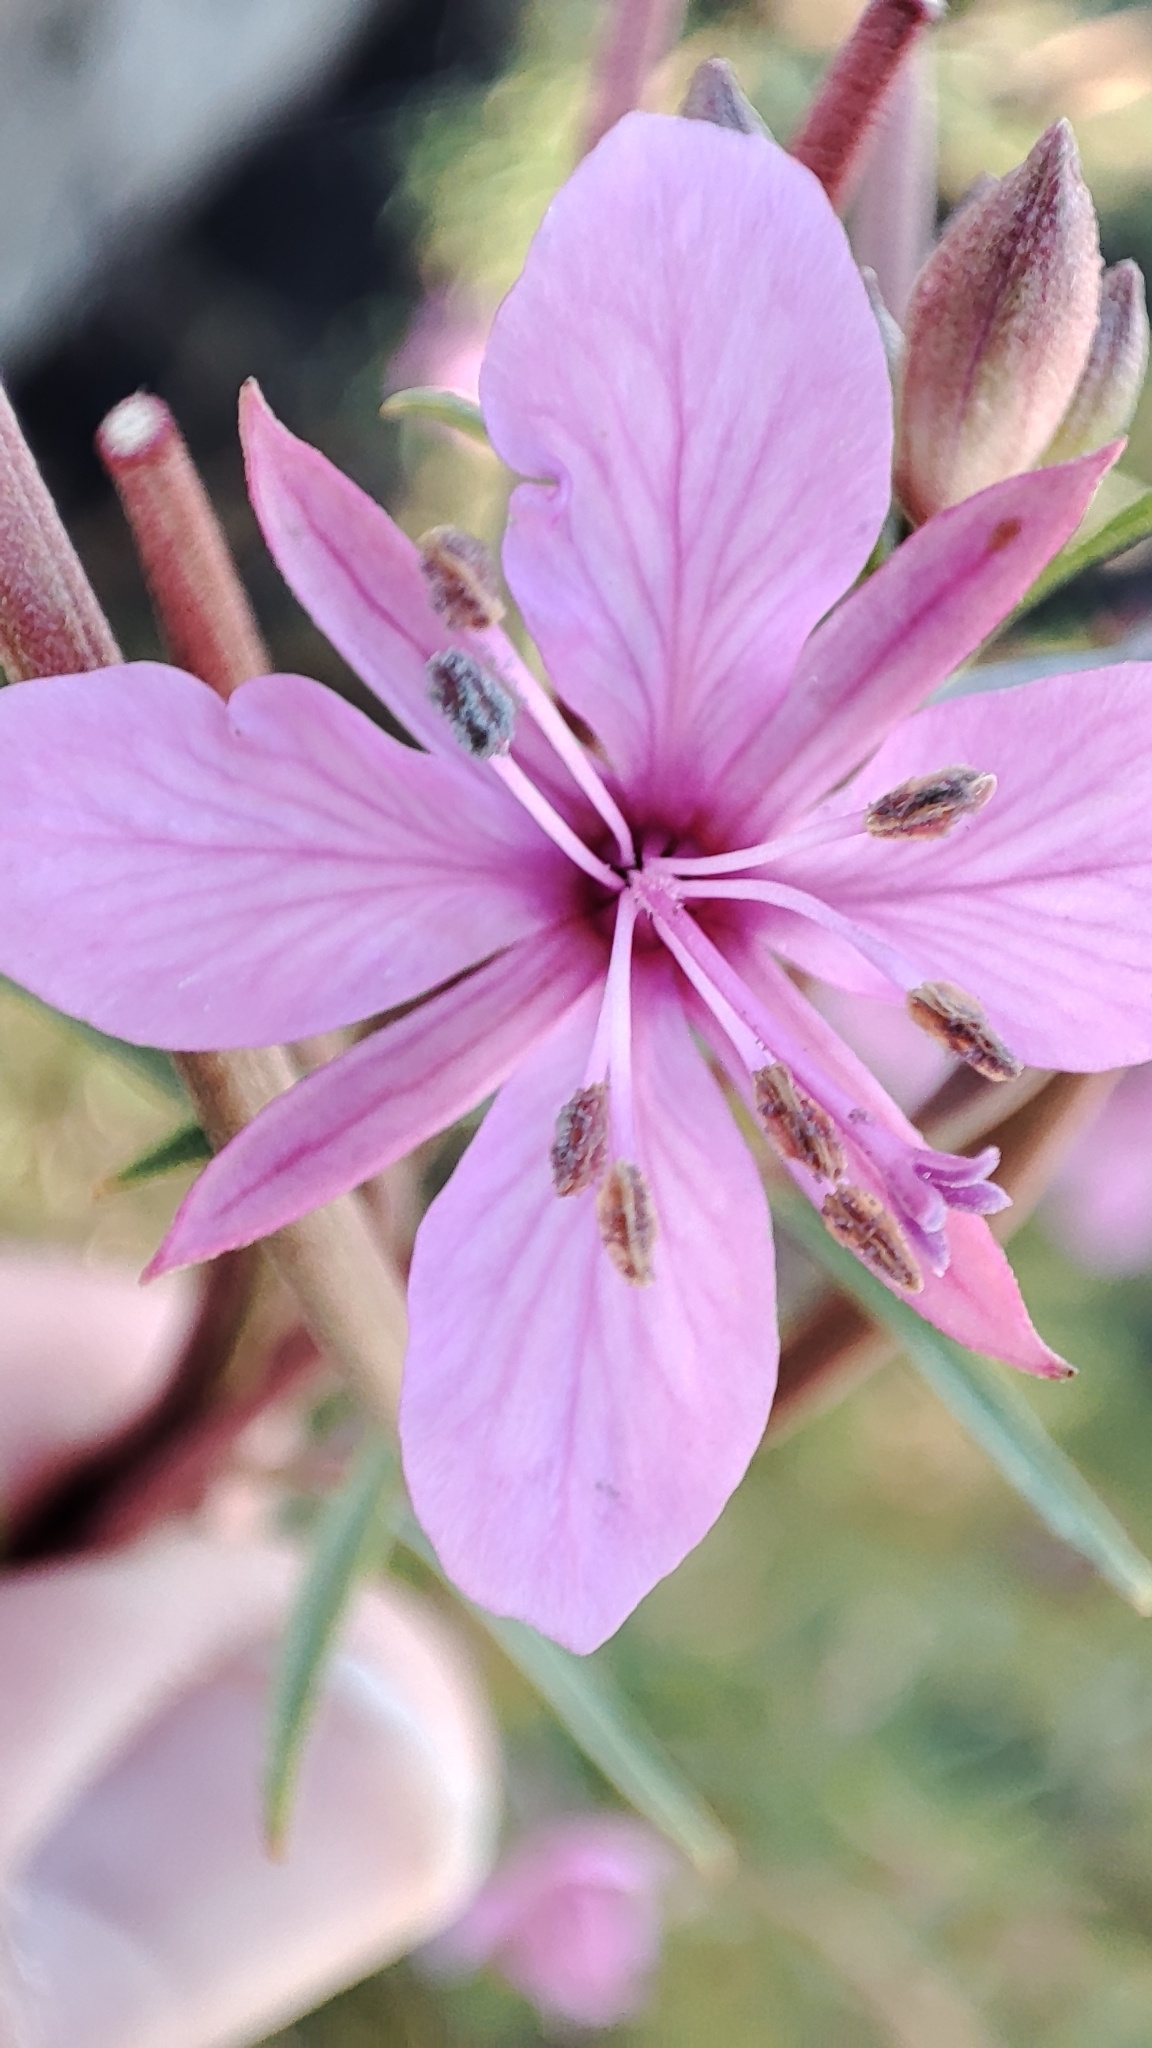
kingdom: Plantae
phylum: Tracheophyta
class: Magnoliopsida
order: Myrtales
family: Onagraceae
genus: Chamaenerion
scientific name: Chamaenerion dodonaei
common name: Rosemary-leaved willowherb
